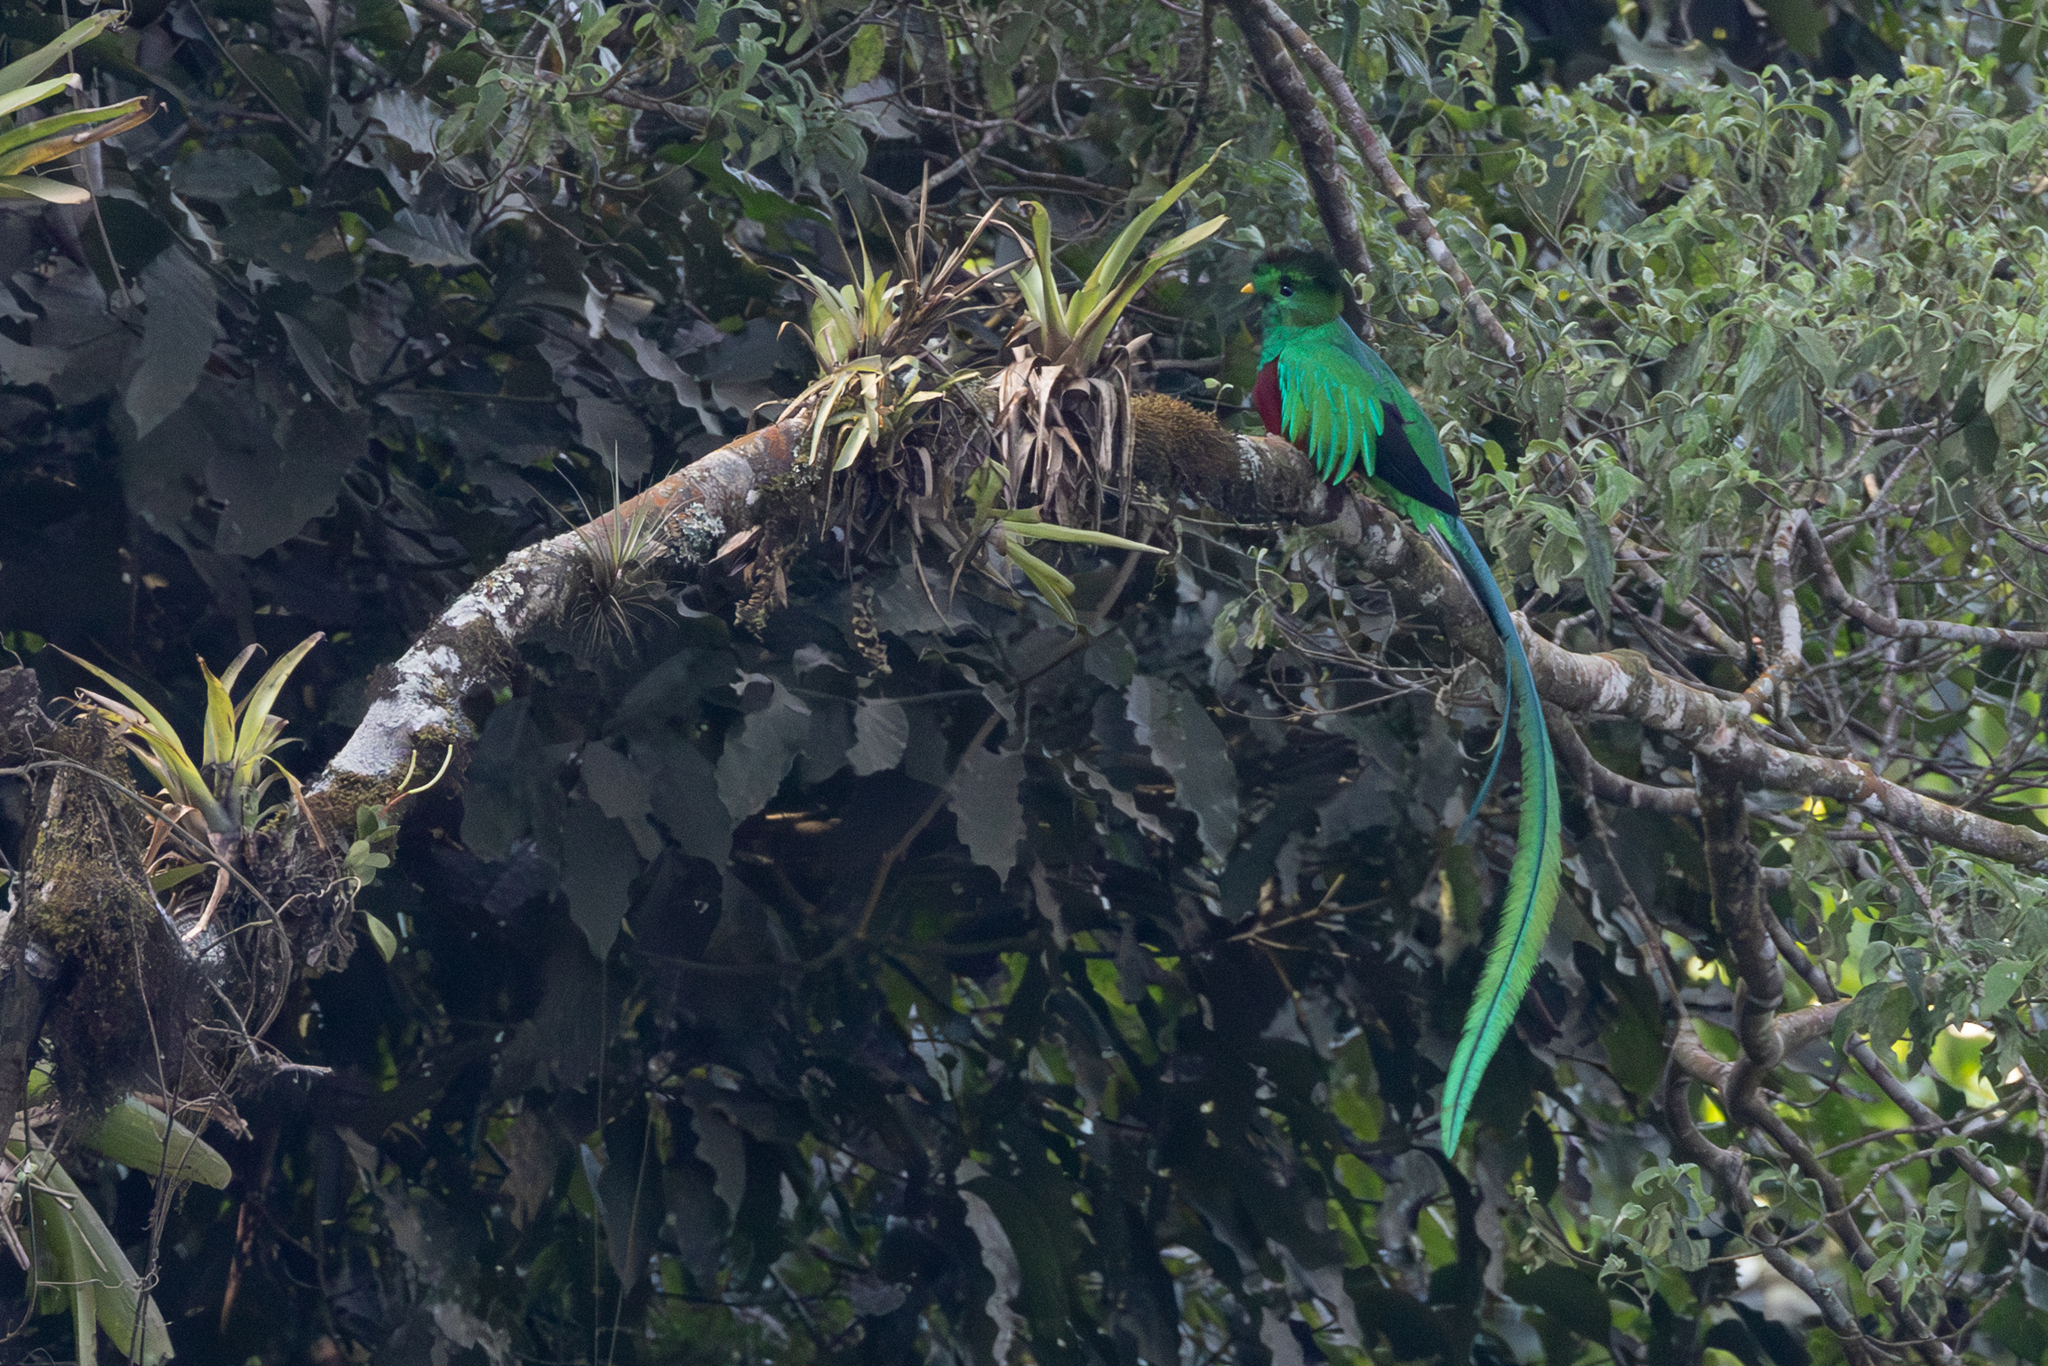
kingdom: Animalia
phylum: Chordata
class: Aves
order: Trogoniformes
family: Trogonidae
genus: Pharomachrus
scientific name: Pharomachrus mocinno
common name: Resplendent quetzal
